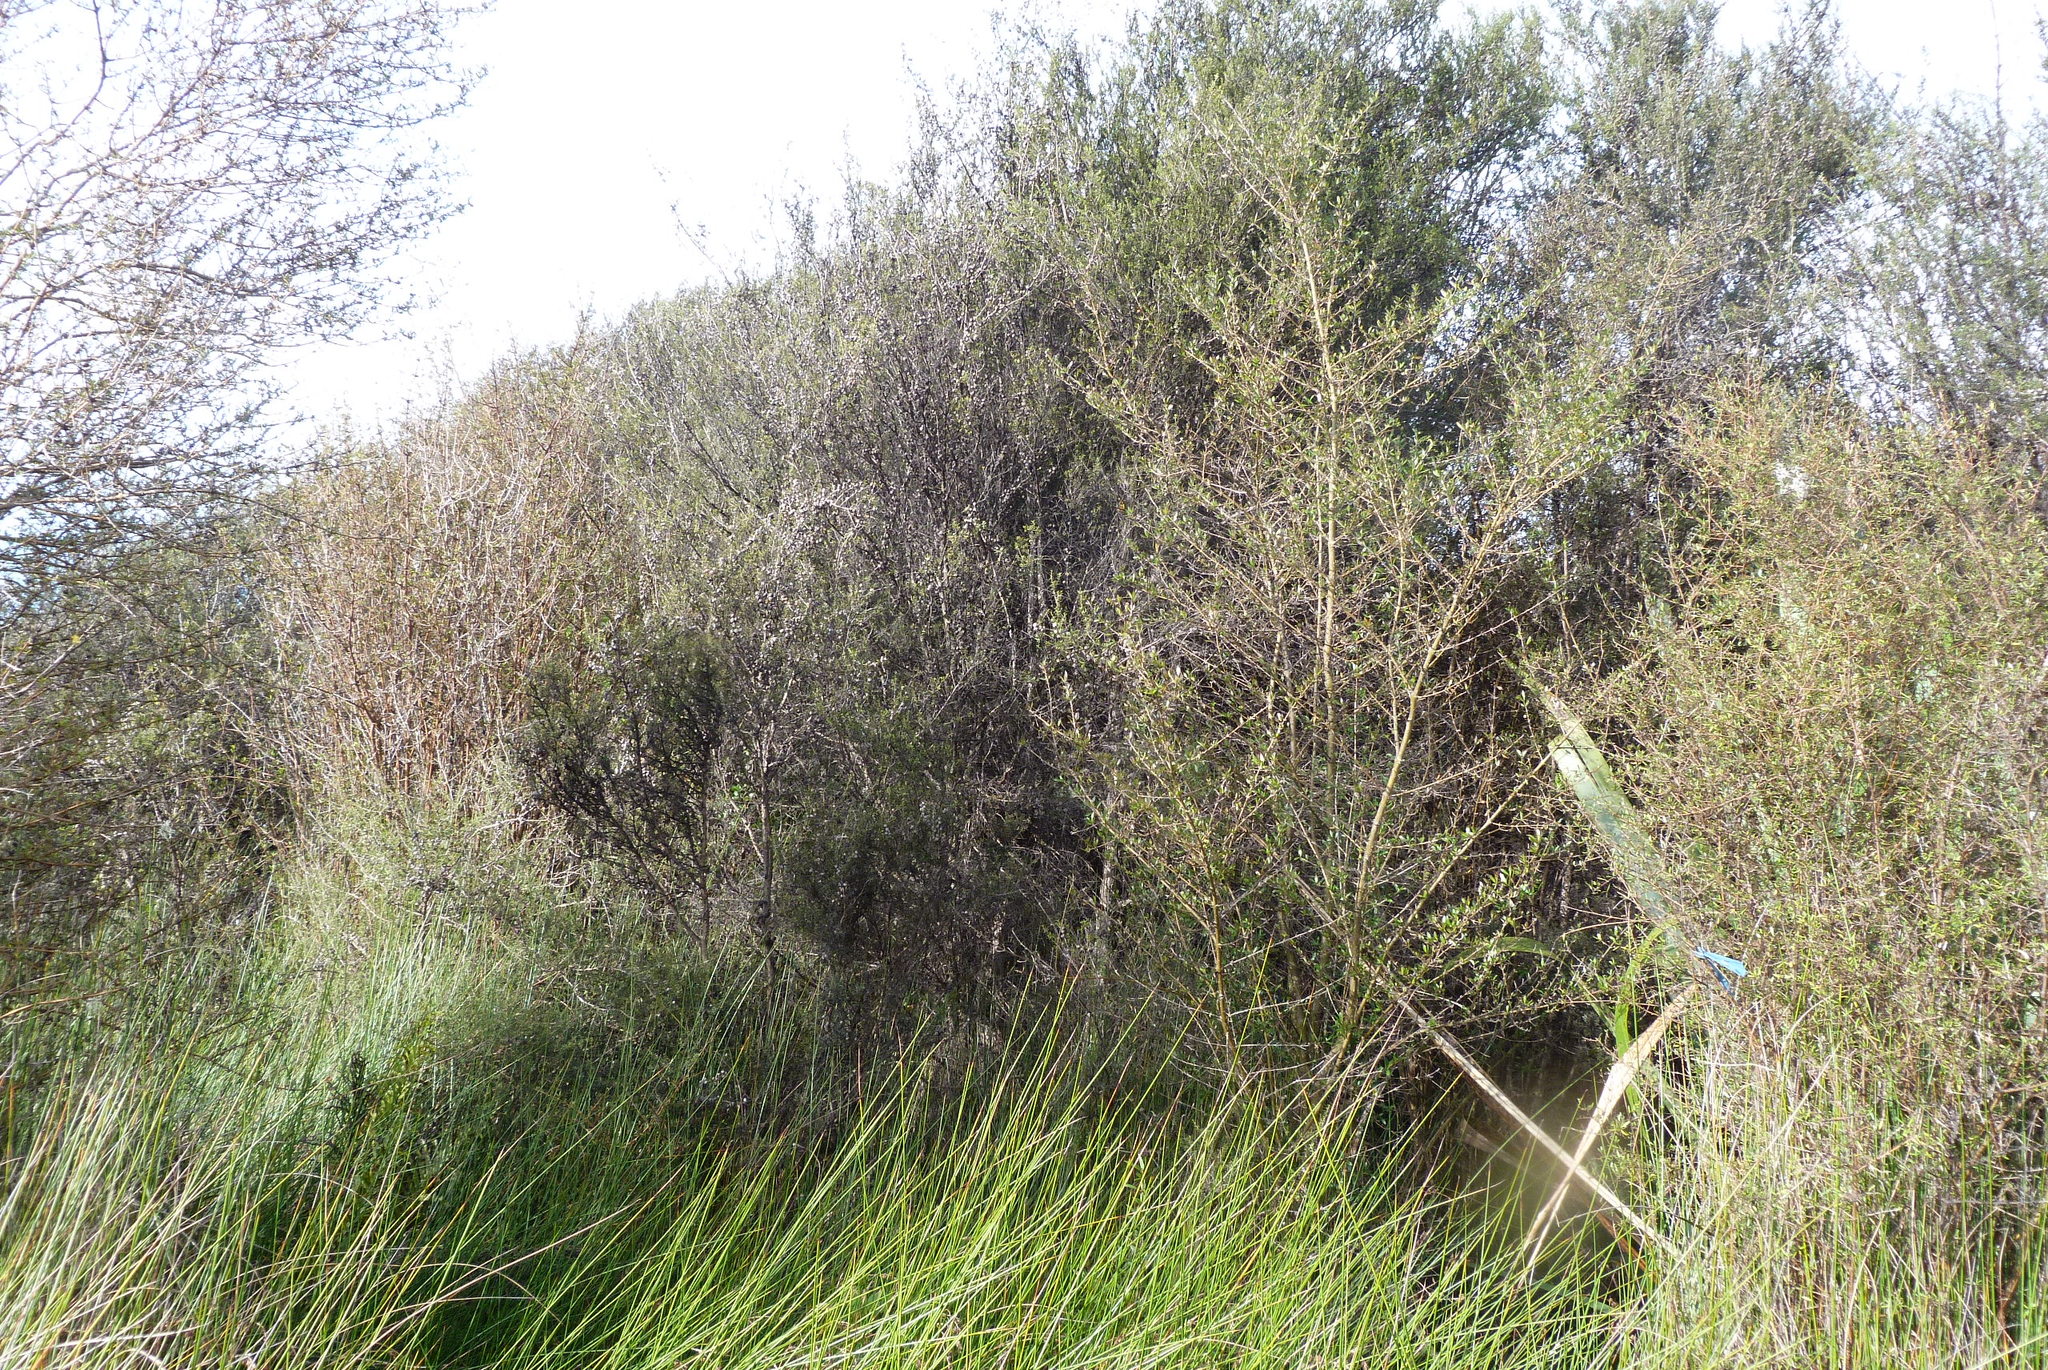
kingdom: Plantae
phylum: Tracheophyta
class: Magnoliopsida
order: Myrtales
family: Myrtaceae
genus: Leptospermum
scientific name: Leptospermum scoparium
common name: Broom tea-tree
